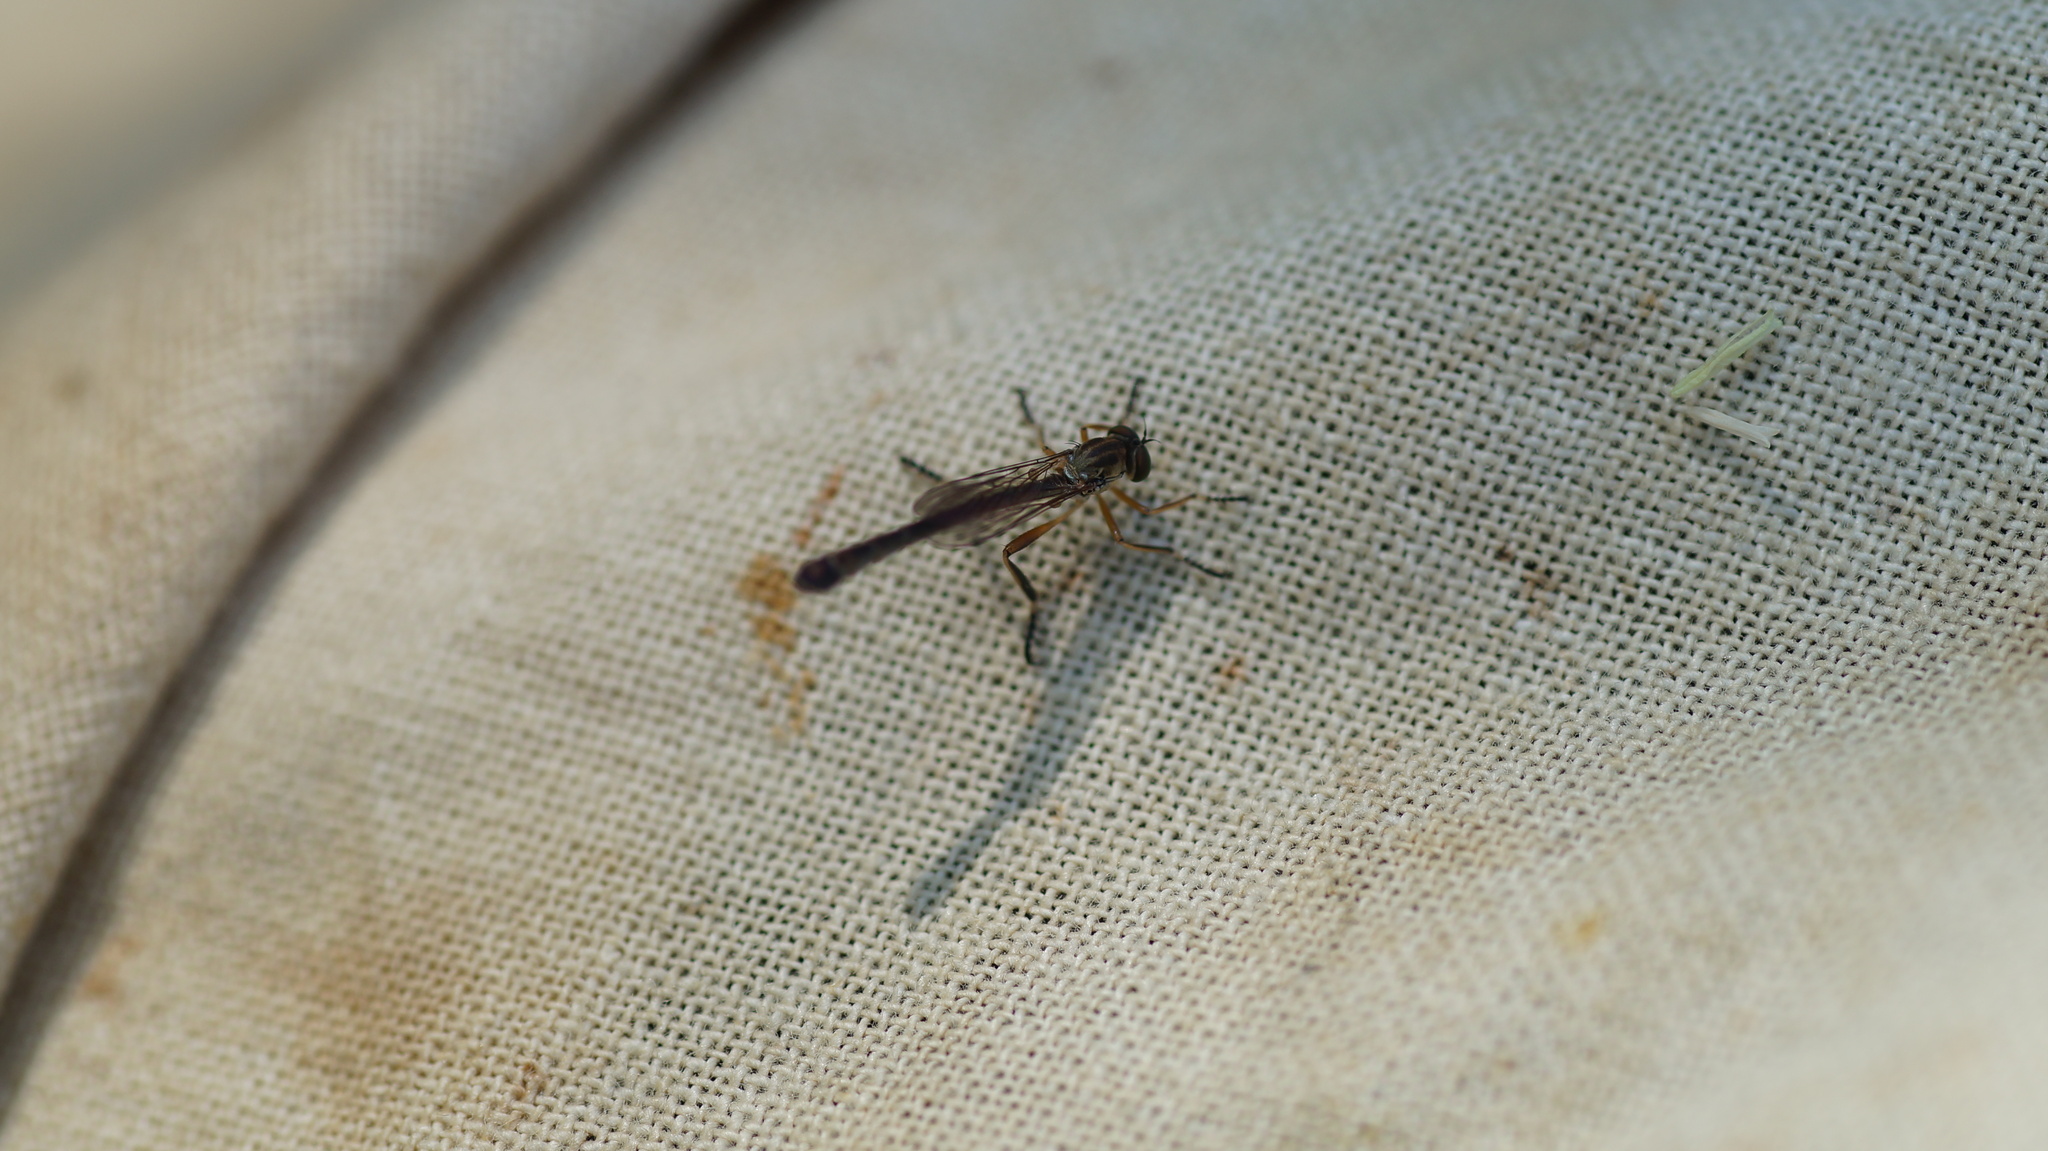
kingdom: Animalia
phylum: Arthropoda
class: Insecta
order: Diptera
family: Asilidae
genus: Leptogaster
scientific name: Leptogaster
